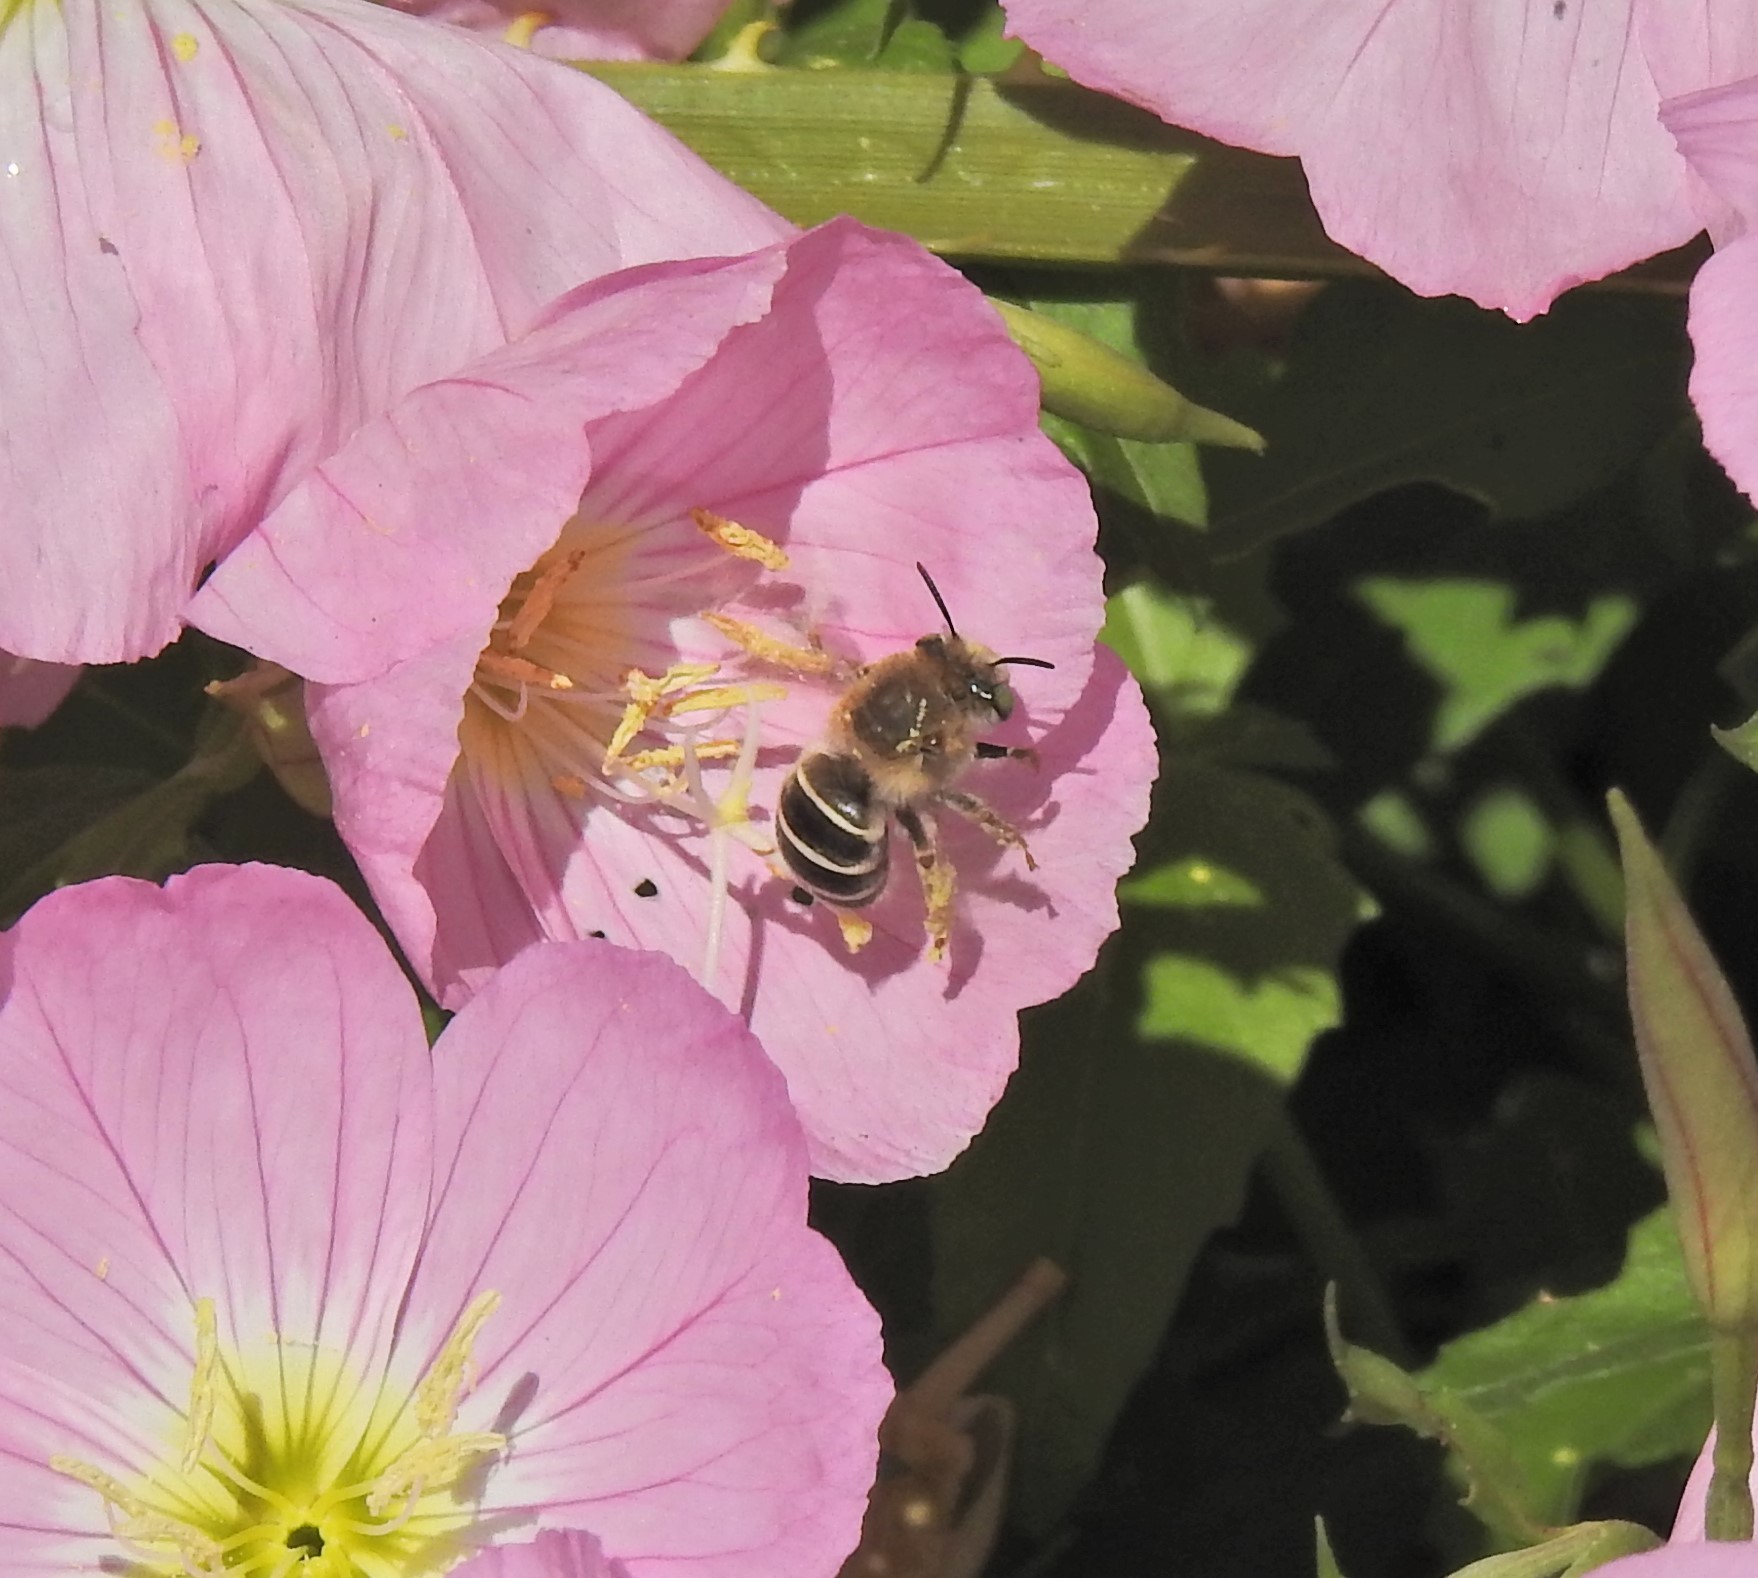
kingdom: Animalia
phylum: Arthropoda
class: Insecta
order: Hymenoptera
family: Apidae
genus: Anthophora
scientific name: Anthophora californica
